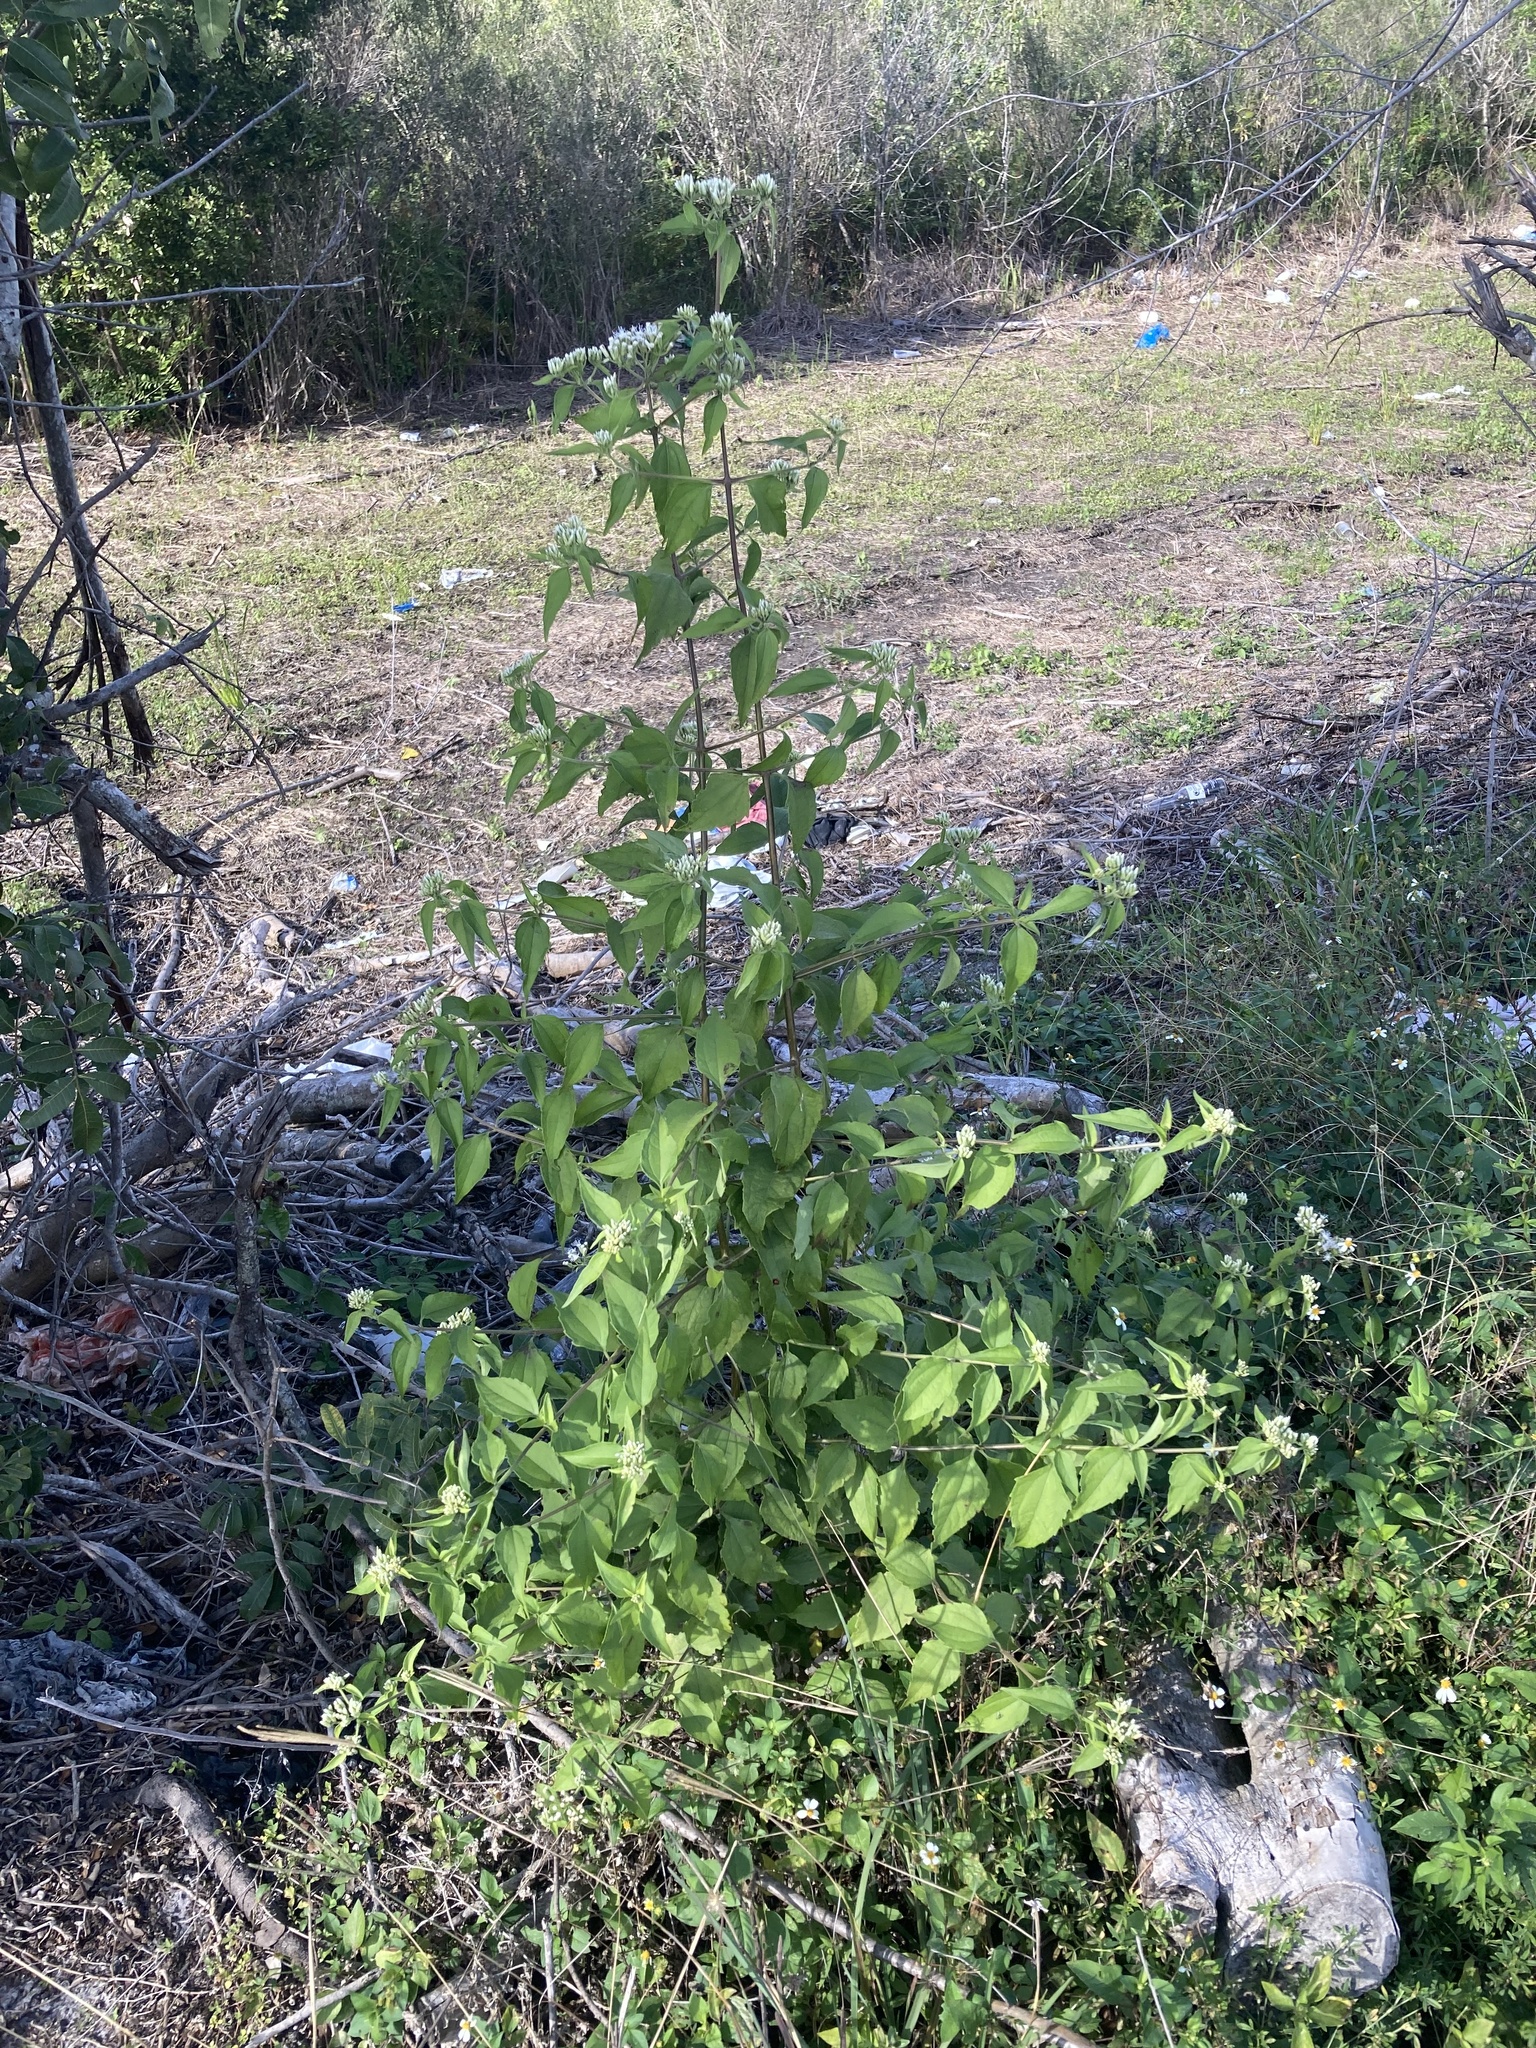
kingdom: Plantae
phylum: Tracheophyta
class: Magnoliopsida
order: Asterales
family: Asteraceae
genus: Chromolaena
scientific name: Chromolaena odorata
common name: Siamweed
